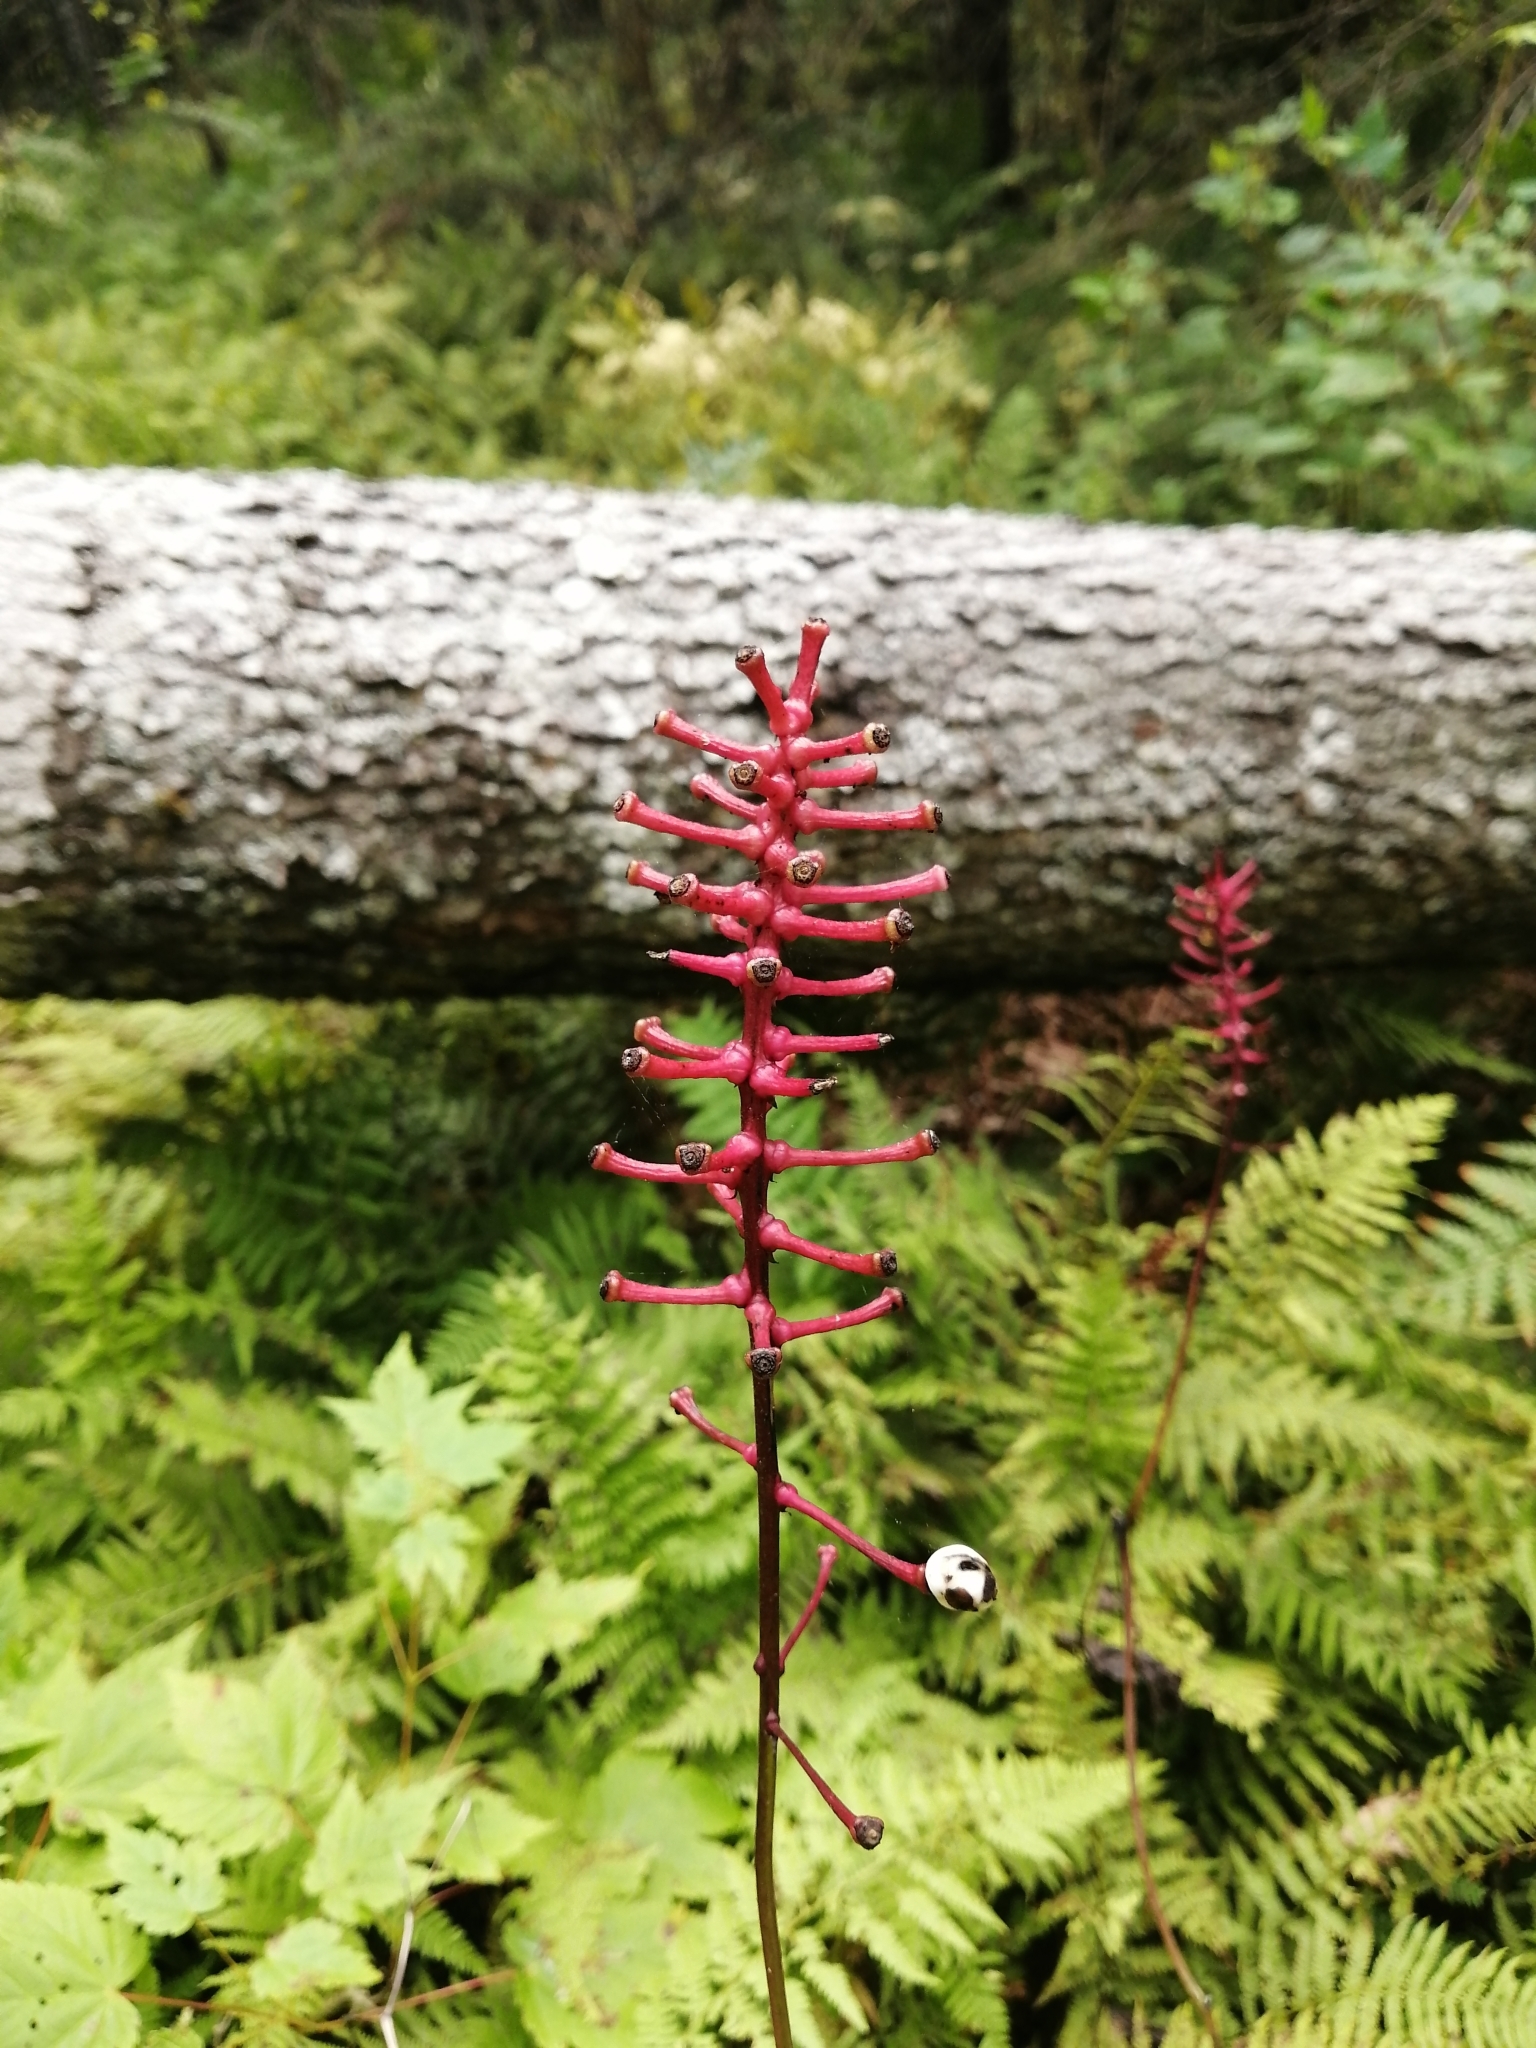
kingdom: Plantae
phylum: Tracheophyta
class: Magnoliopsida
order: Ranunculales
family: Ranunculaceae
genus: Actaea
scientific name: Actaea pachypoda
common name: Doll's-eyes
